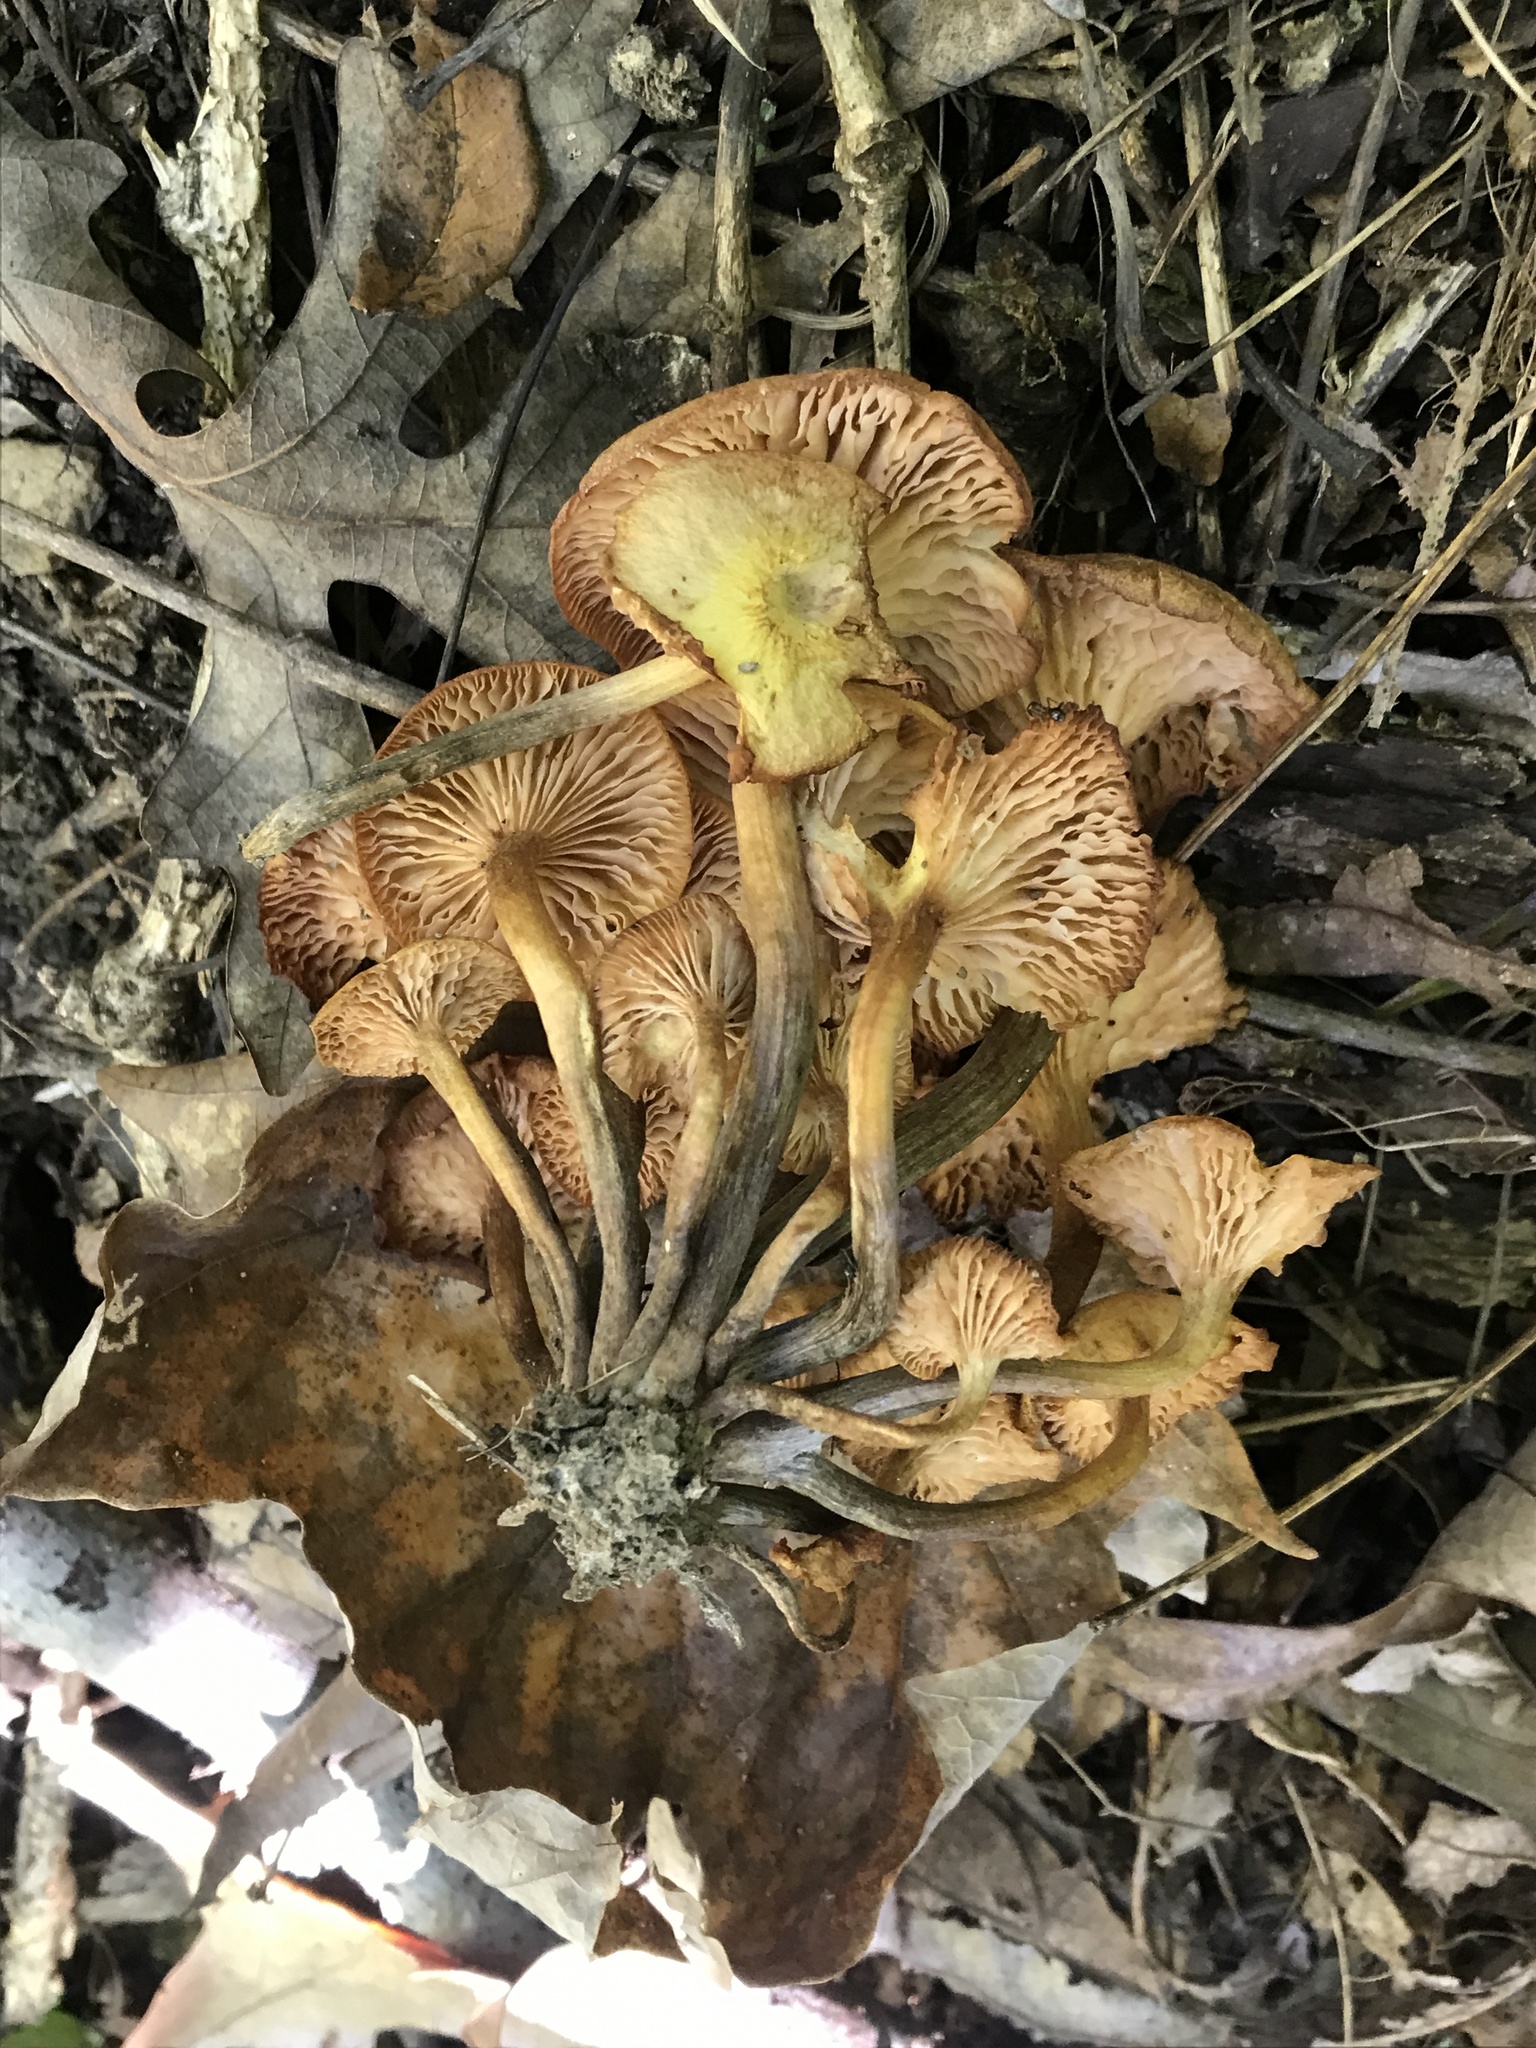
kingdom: Fungi
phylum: Basidiomycota
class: Agaricomycetes
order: Agaricales
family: Physalacriaceae
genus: Desarmillaria
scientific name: Desarmillaria caespitosa
